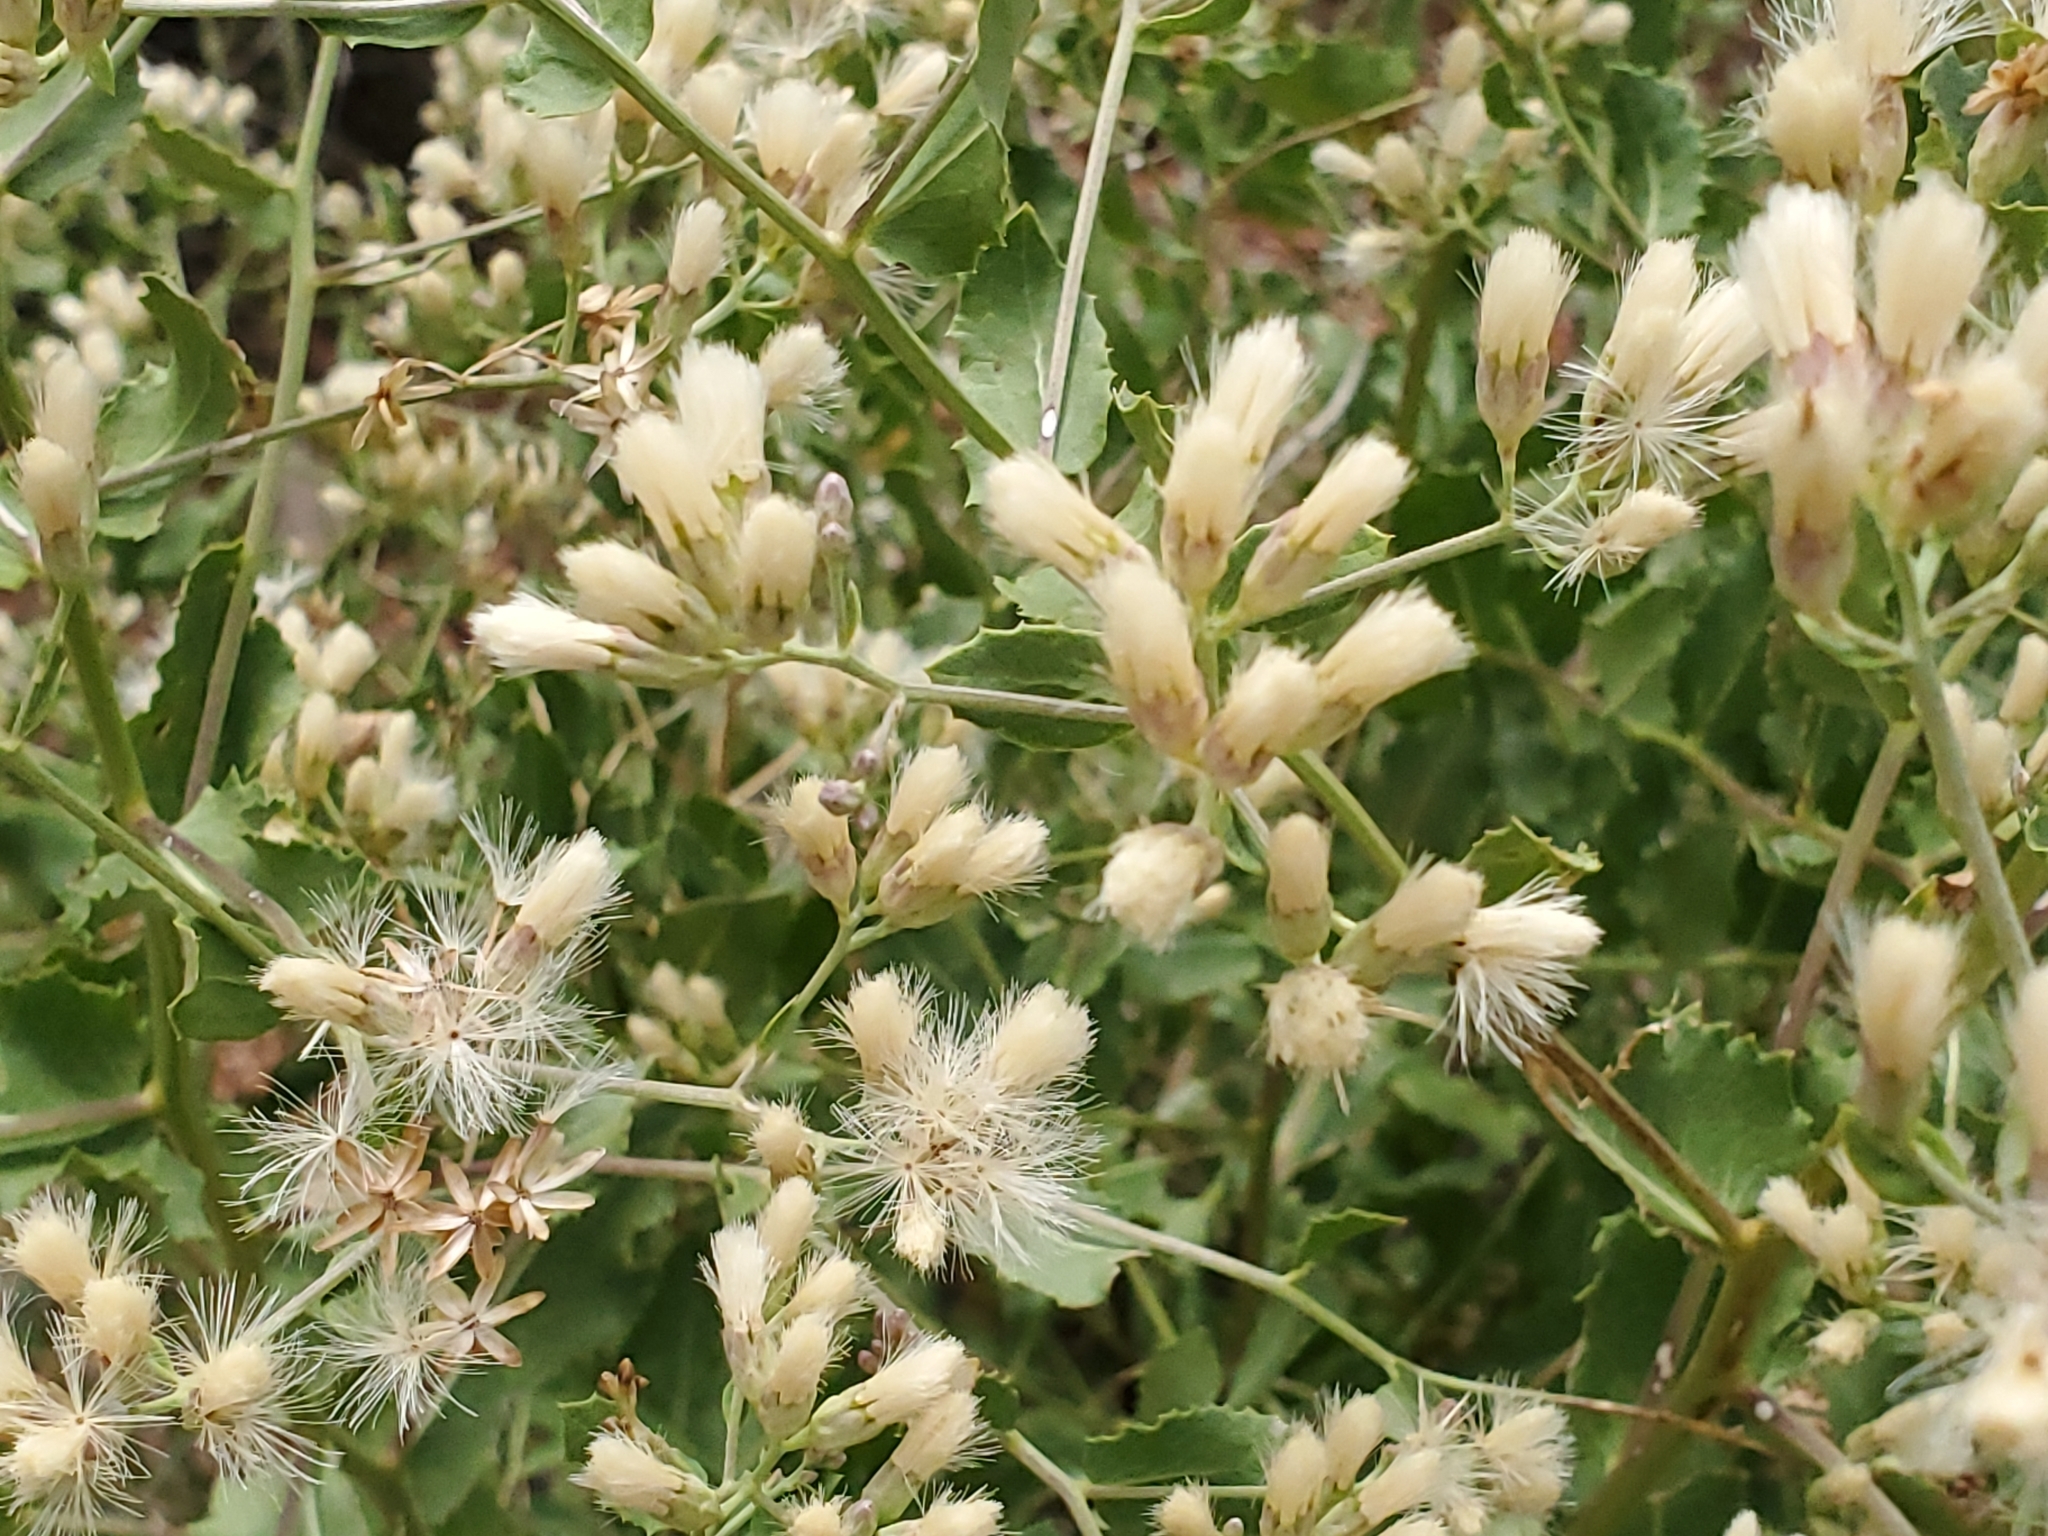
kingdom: Plantae
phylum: Tracheophyta
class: Magnoliopsida
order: Asterales
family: Asteraceae
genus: Acourtia
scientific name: Acourtia wrightii
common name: Brownfoot
